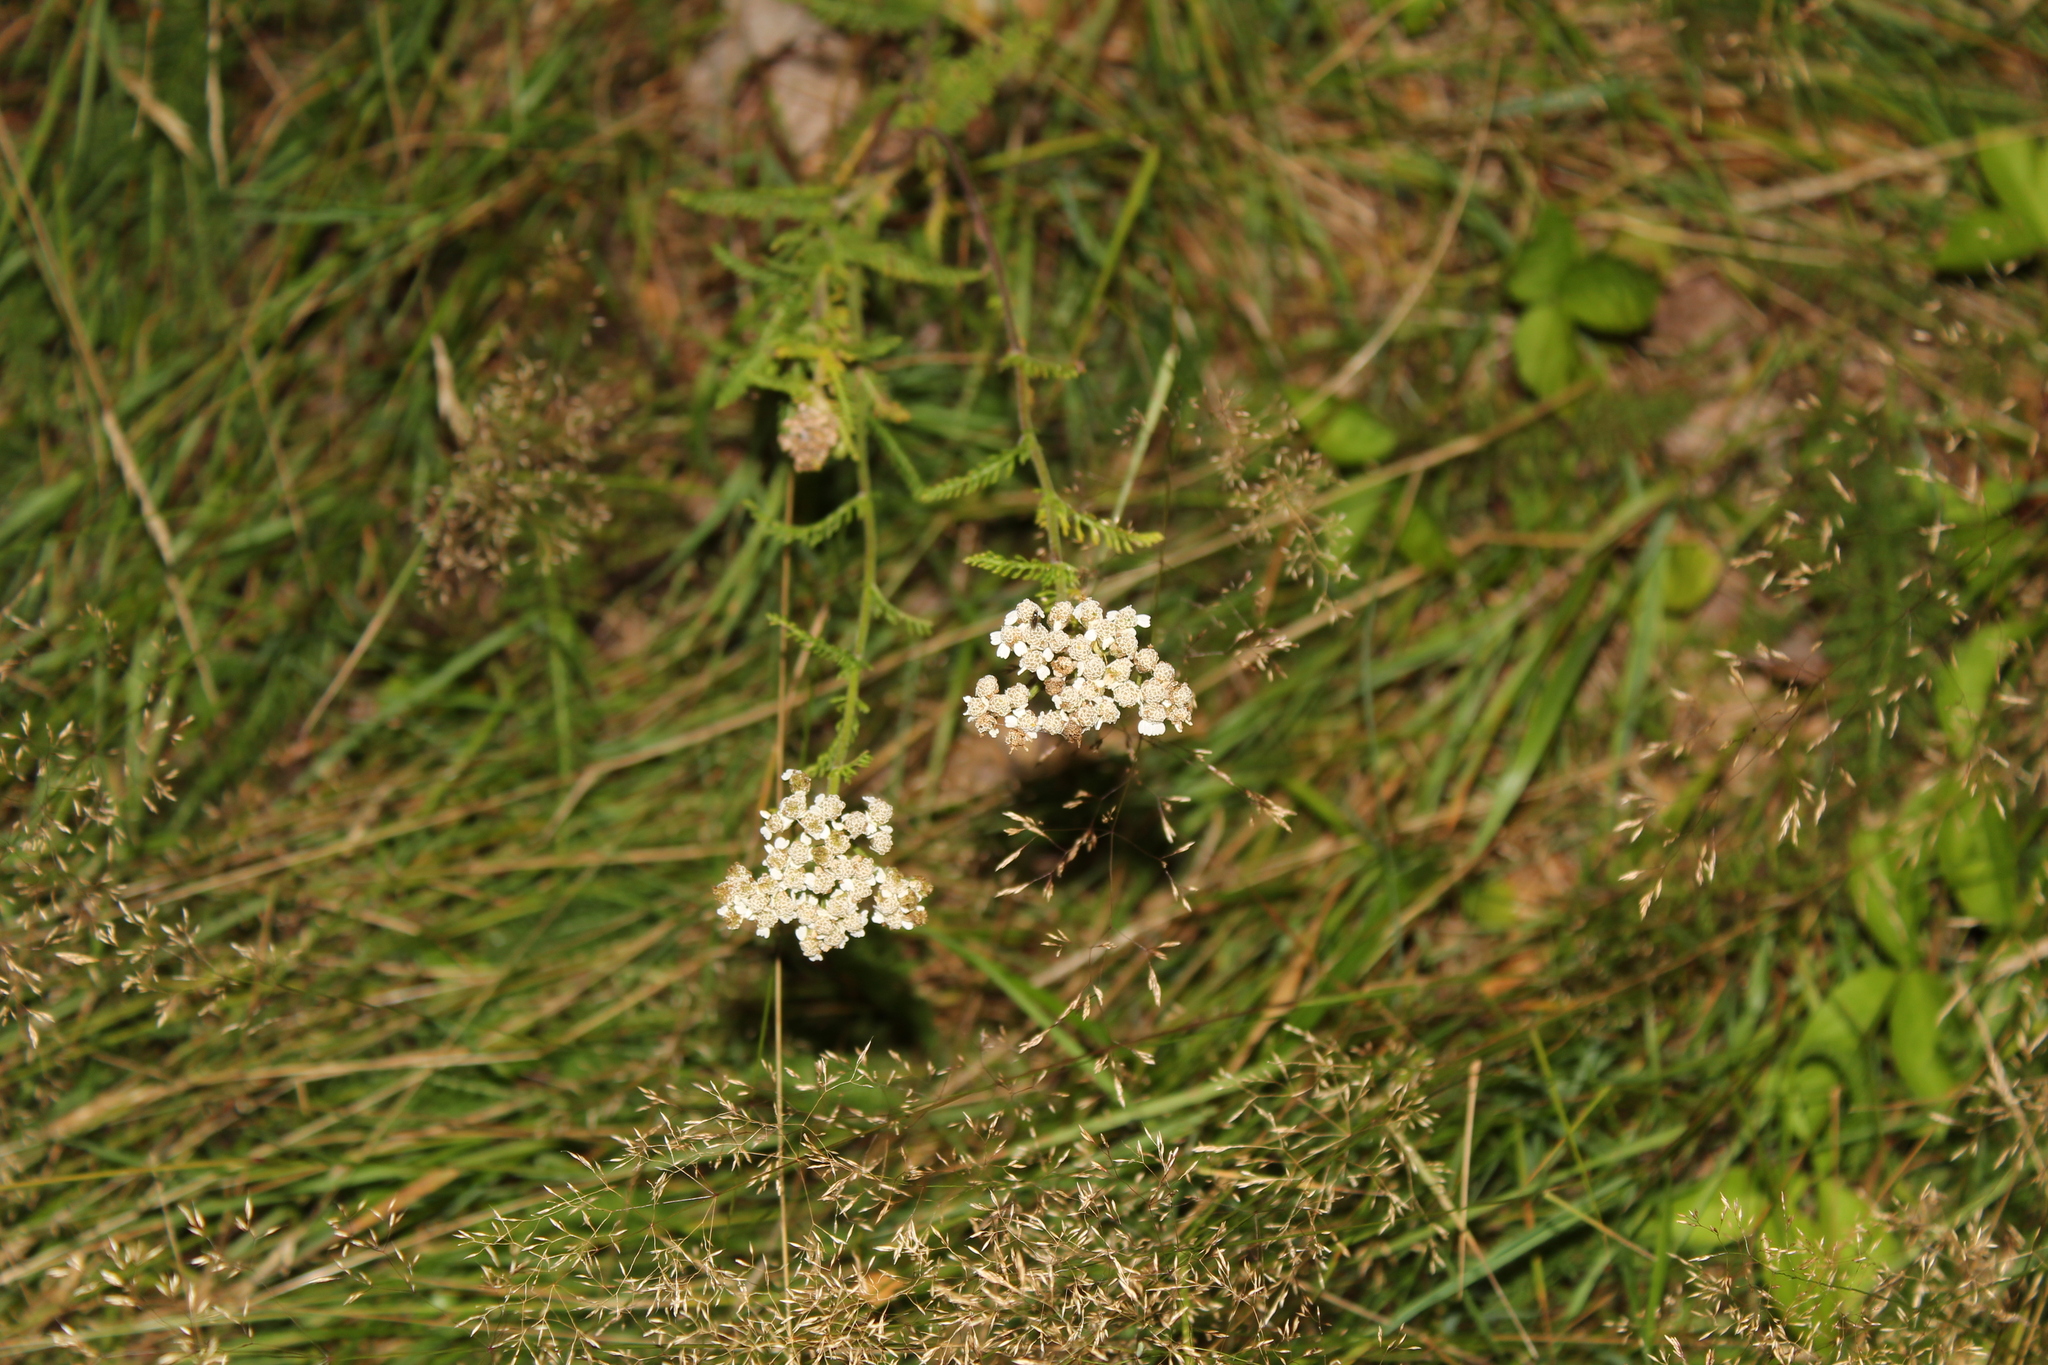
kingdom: Plantae
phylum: Tracheophyta
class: Magnoliopsida
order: Asterales
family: Asteraceae
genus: Achillea
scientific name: Achillea millefolium
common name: Yarrow
